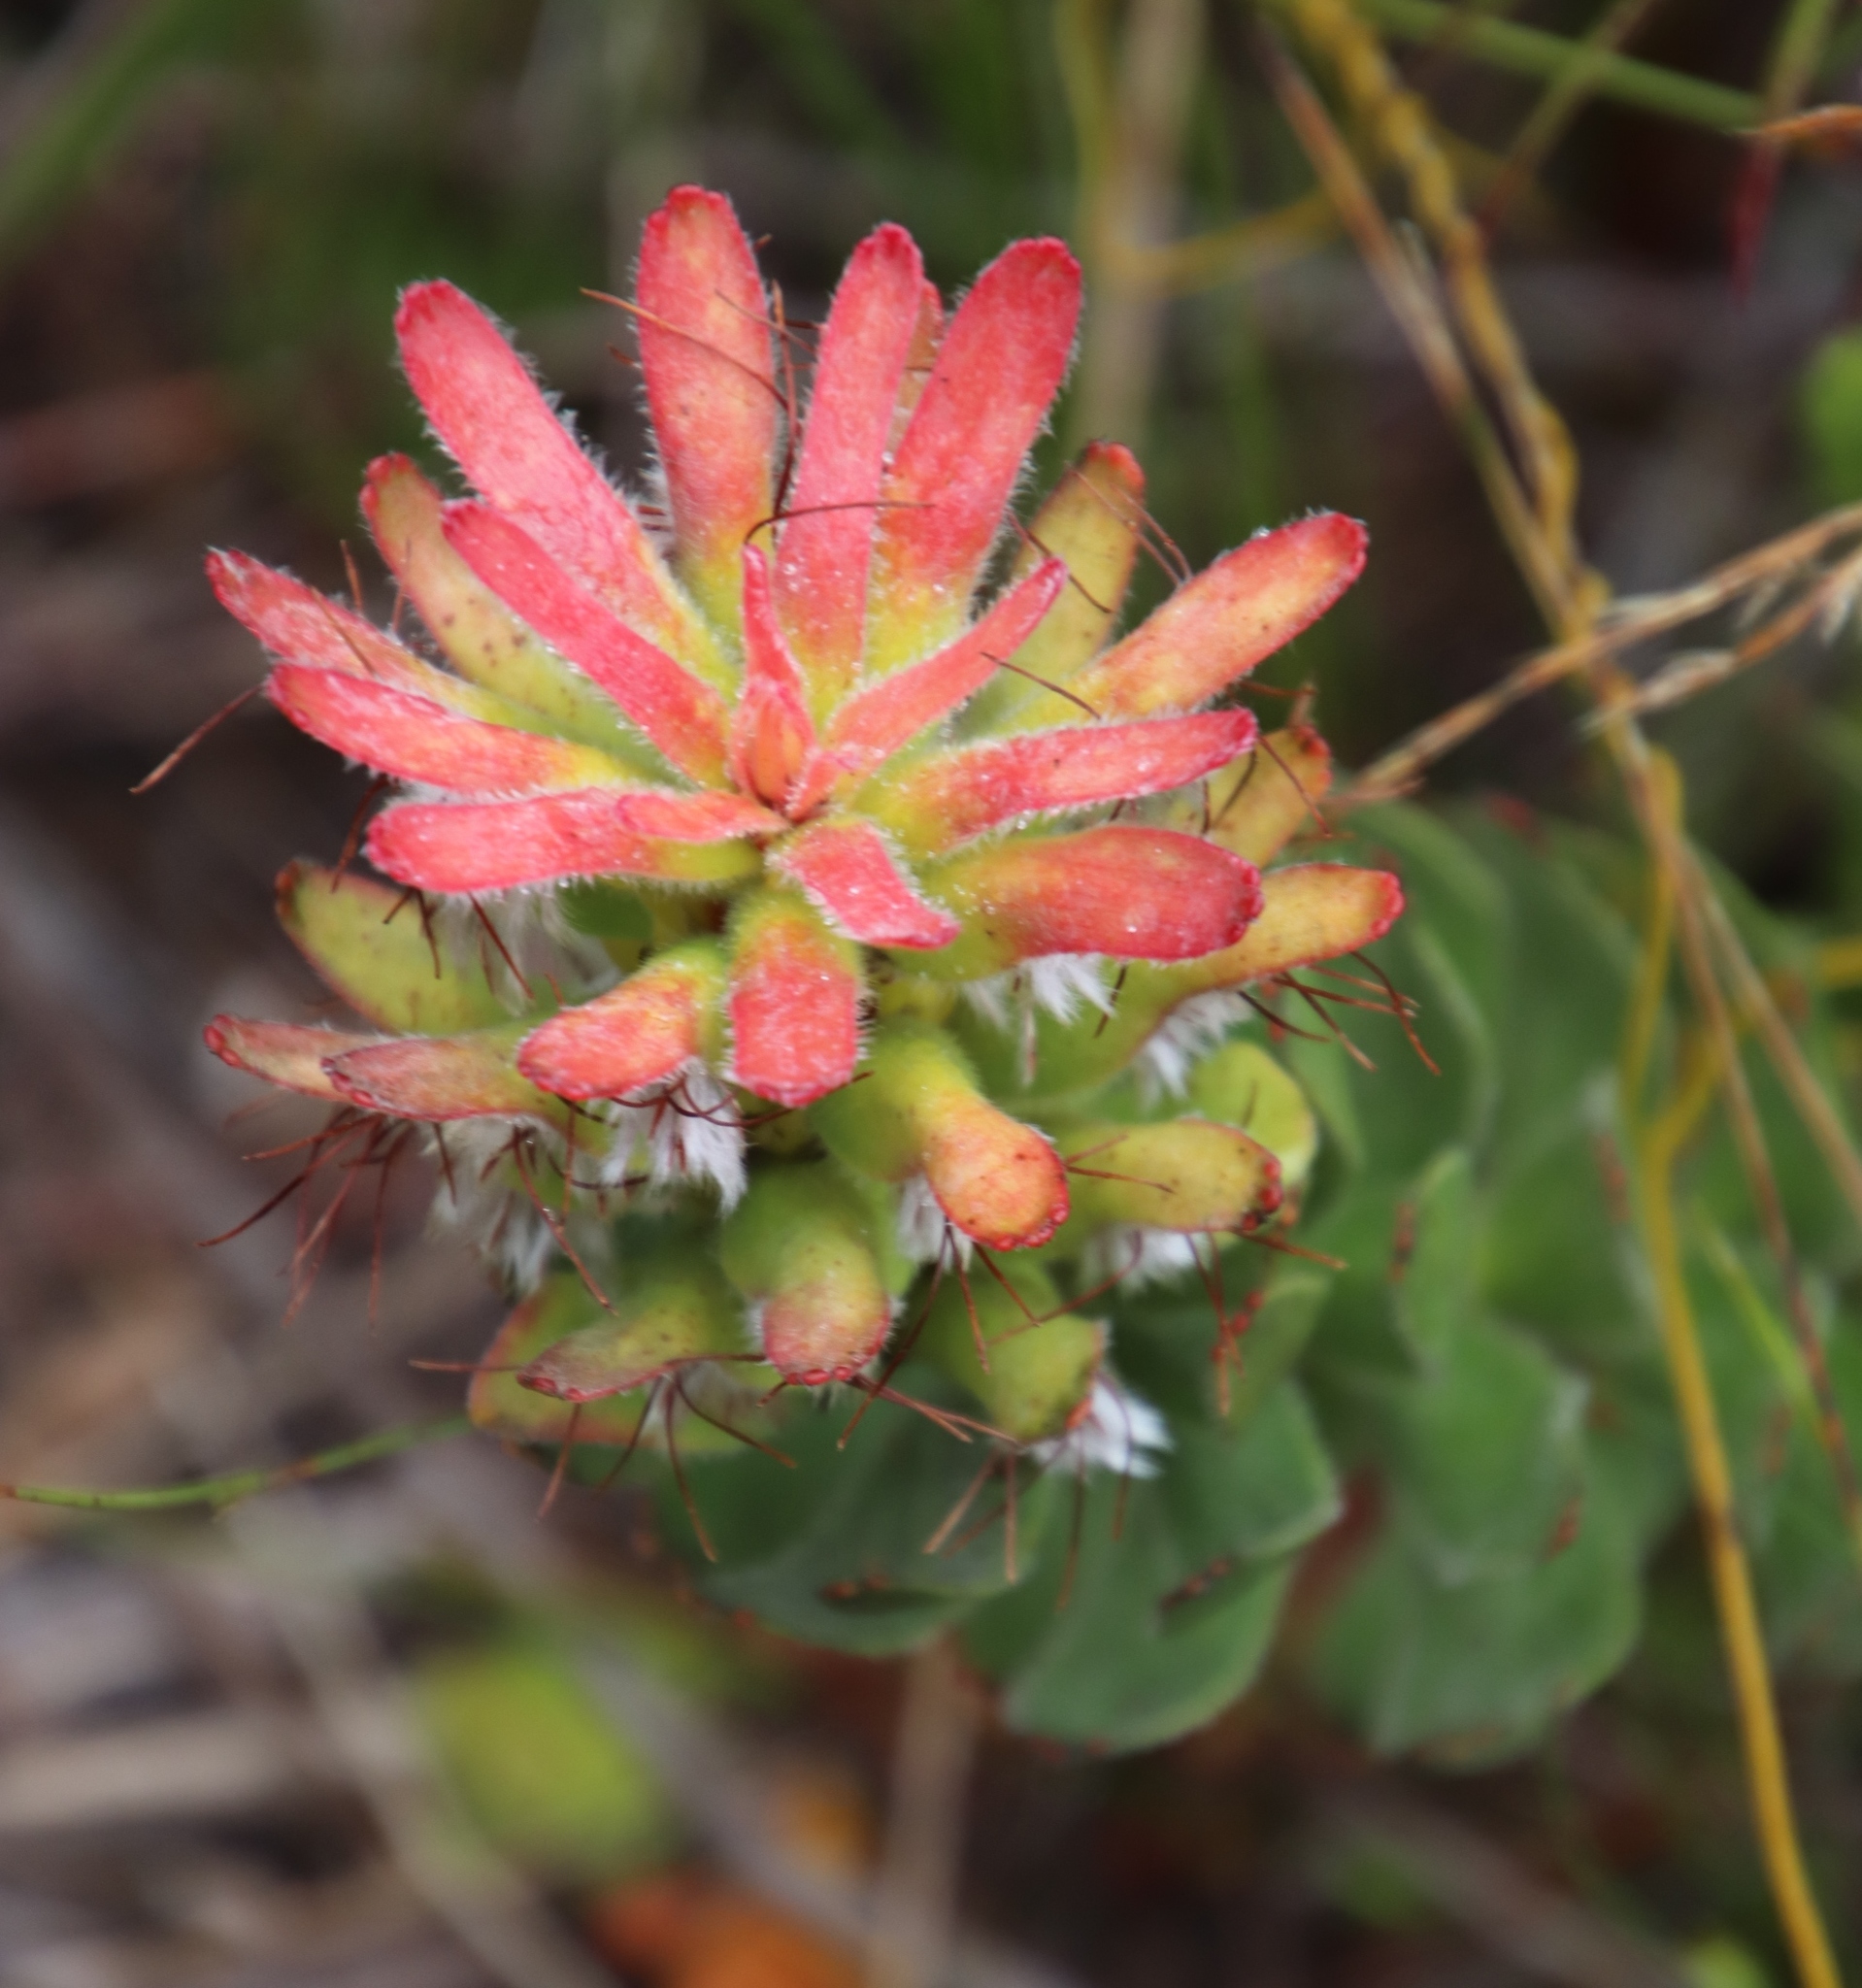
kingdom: Plantae
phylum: Tracheophyta
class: Magnoliopsida
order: Proteales
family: Proteaceae
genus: Mimetes
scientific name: Mimetes cucullatus
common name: Common pagoda
